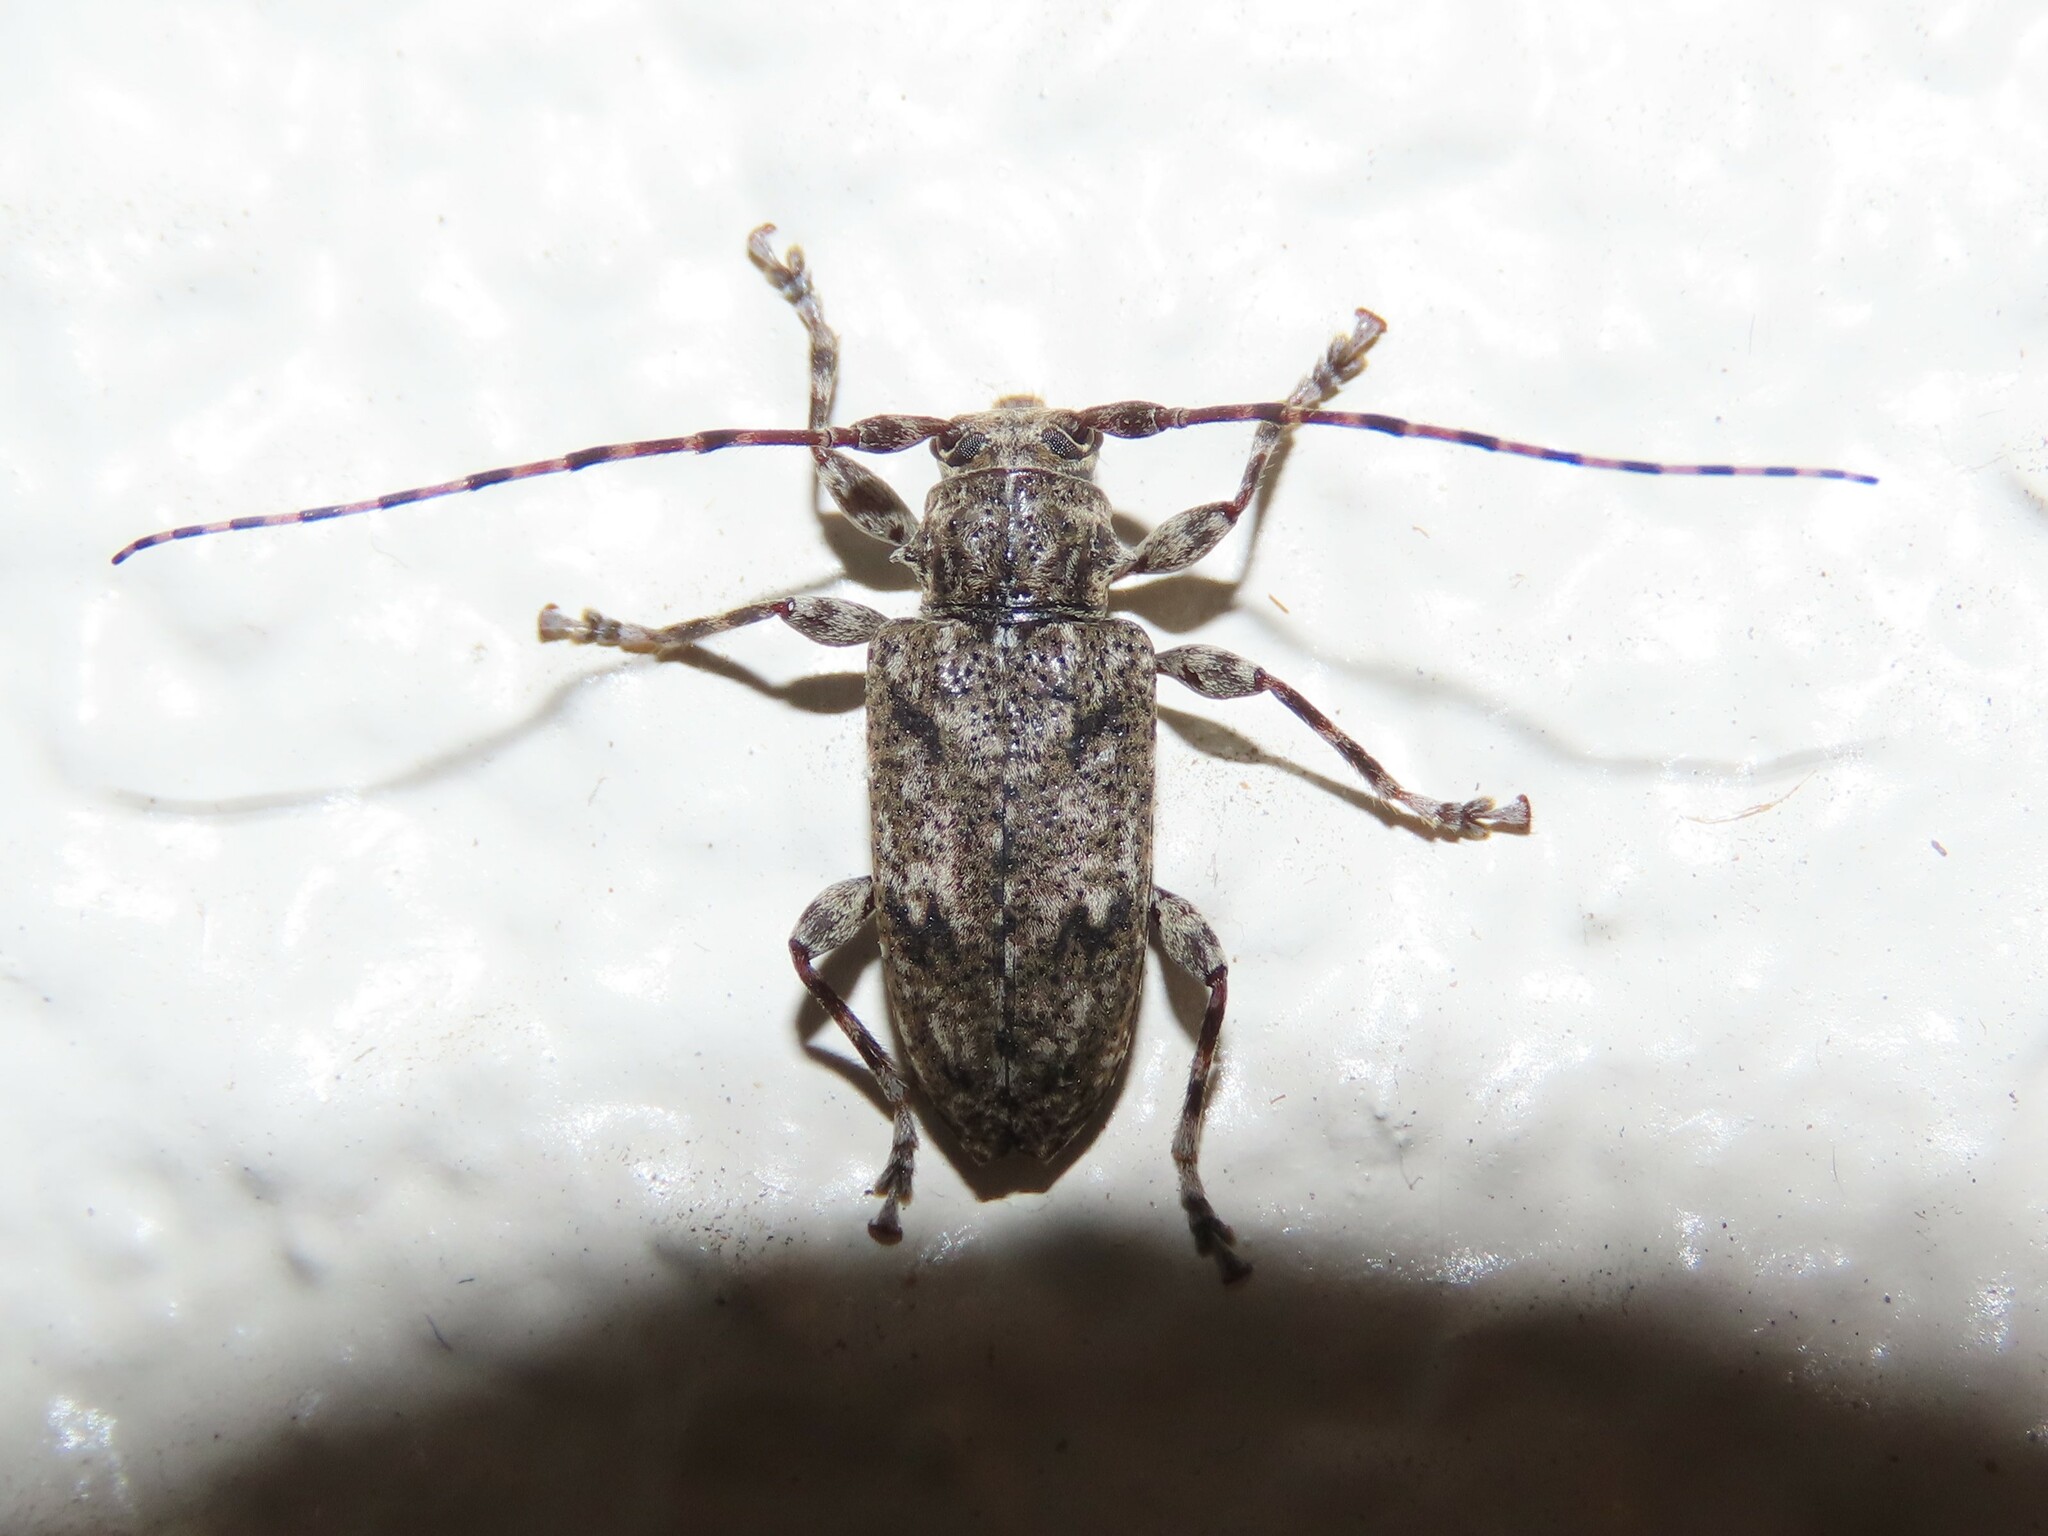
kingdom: Animalia
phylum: Arthropoda
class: Insecta
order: Coleoptera
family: Cerambycidae
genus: Aegomorphus
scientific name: Aegomorphus modestus
